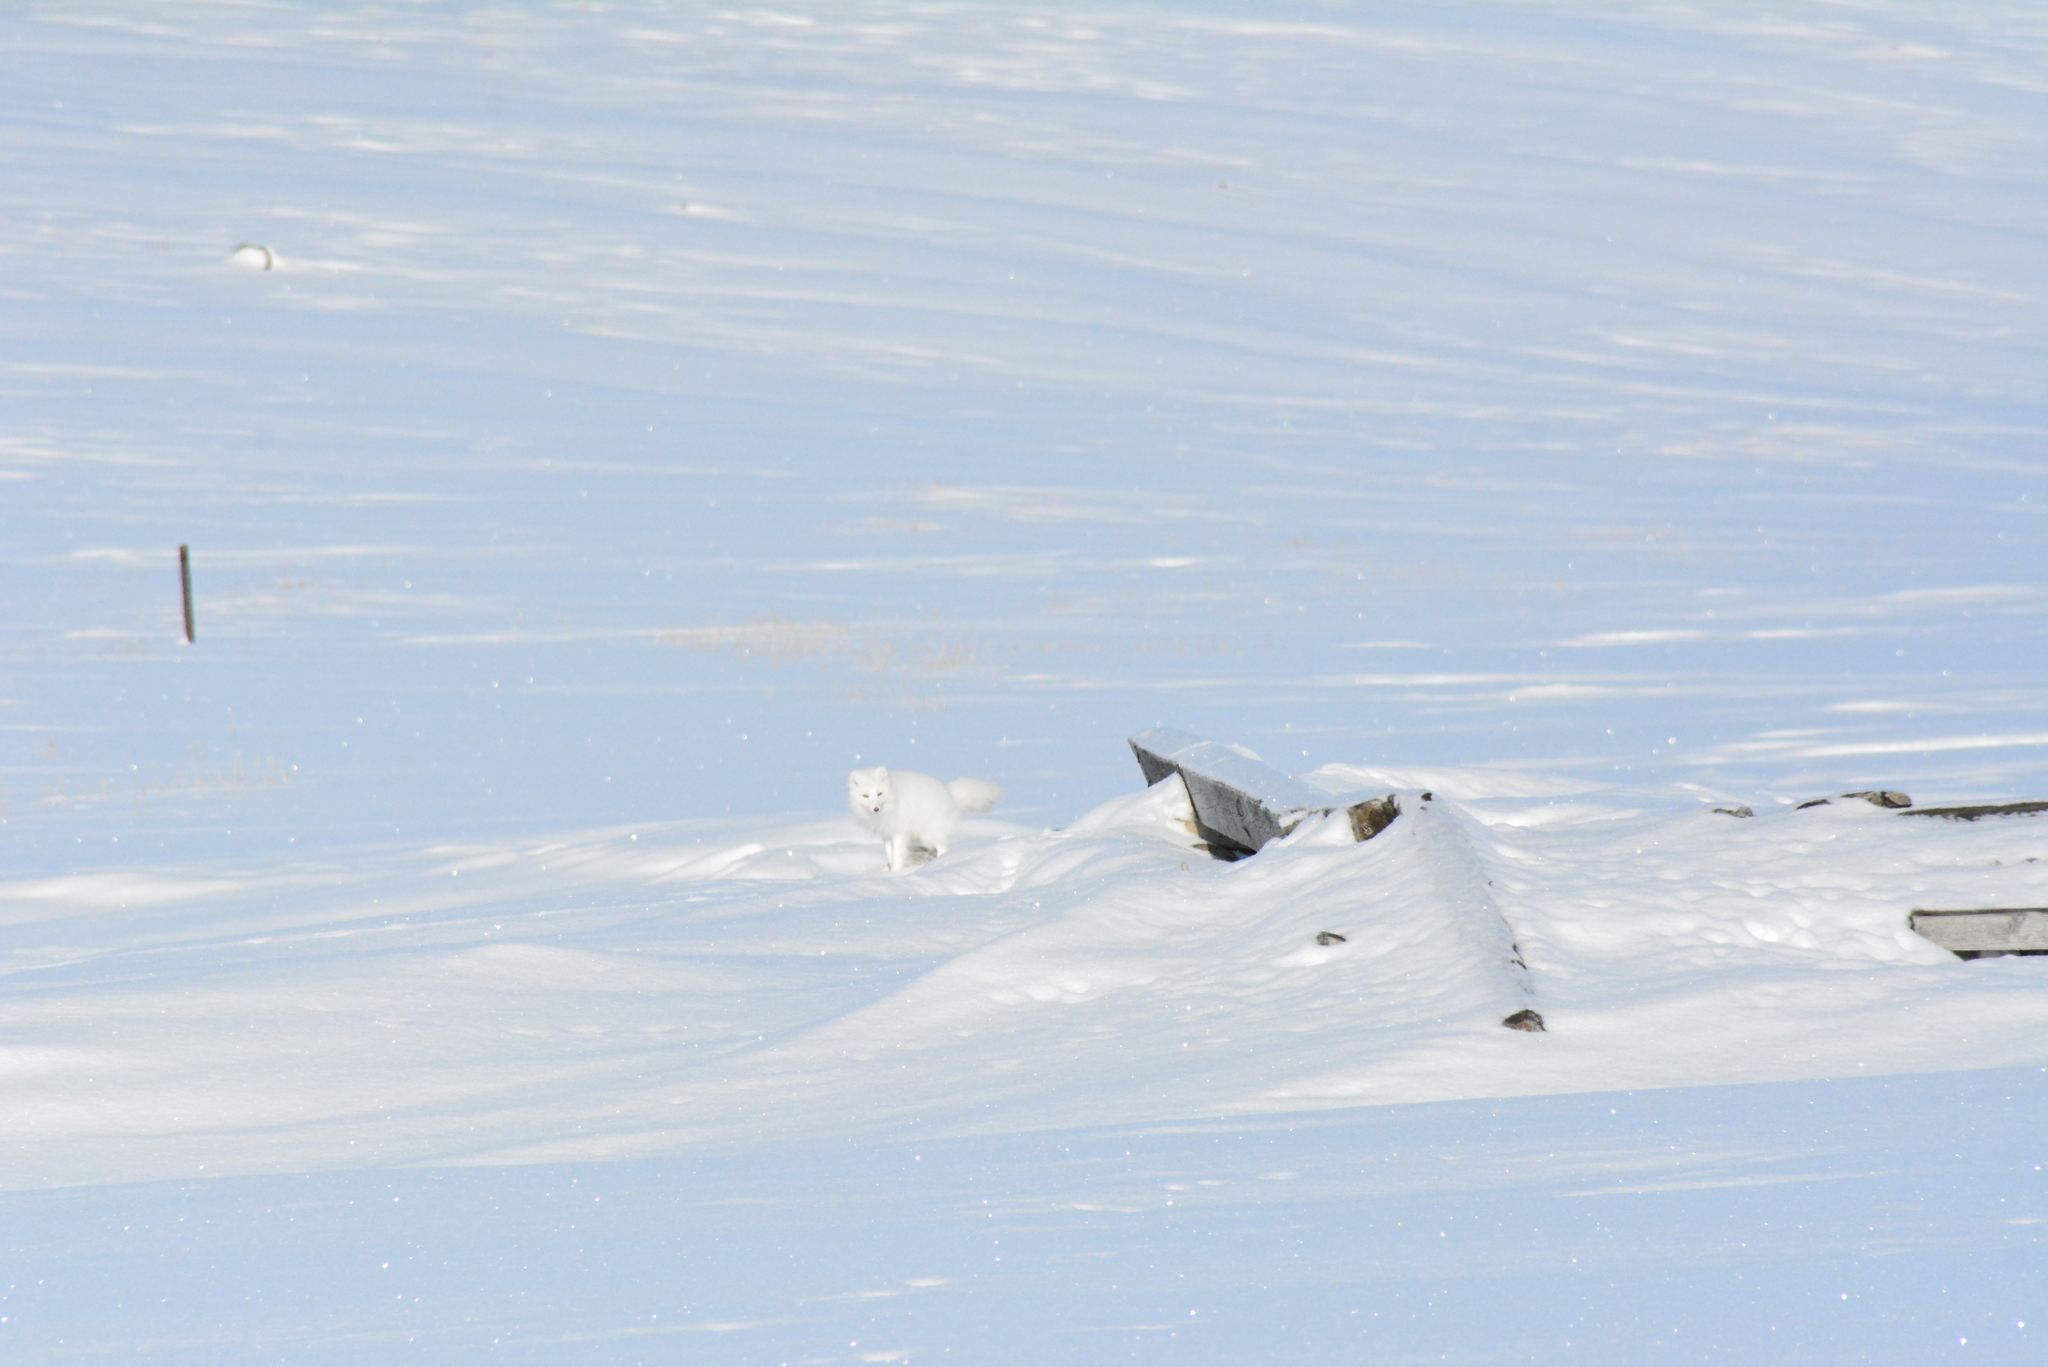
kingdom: Animalia
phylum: Chordata
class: Mammalia
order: Carnivora
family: Canidae
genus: Vulpes
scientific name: Vulpes lagopus
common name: Arctic fox
